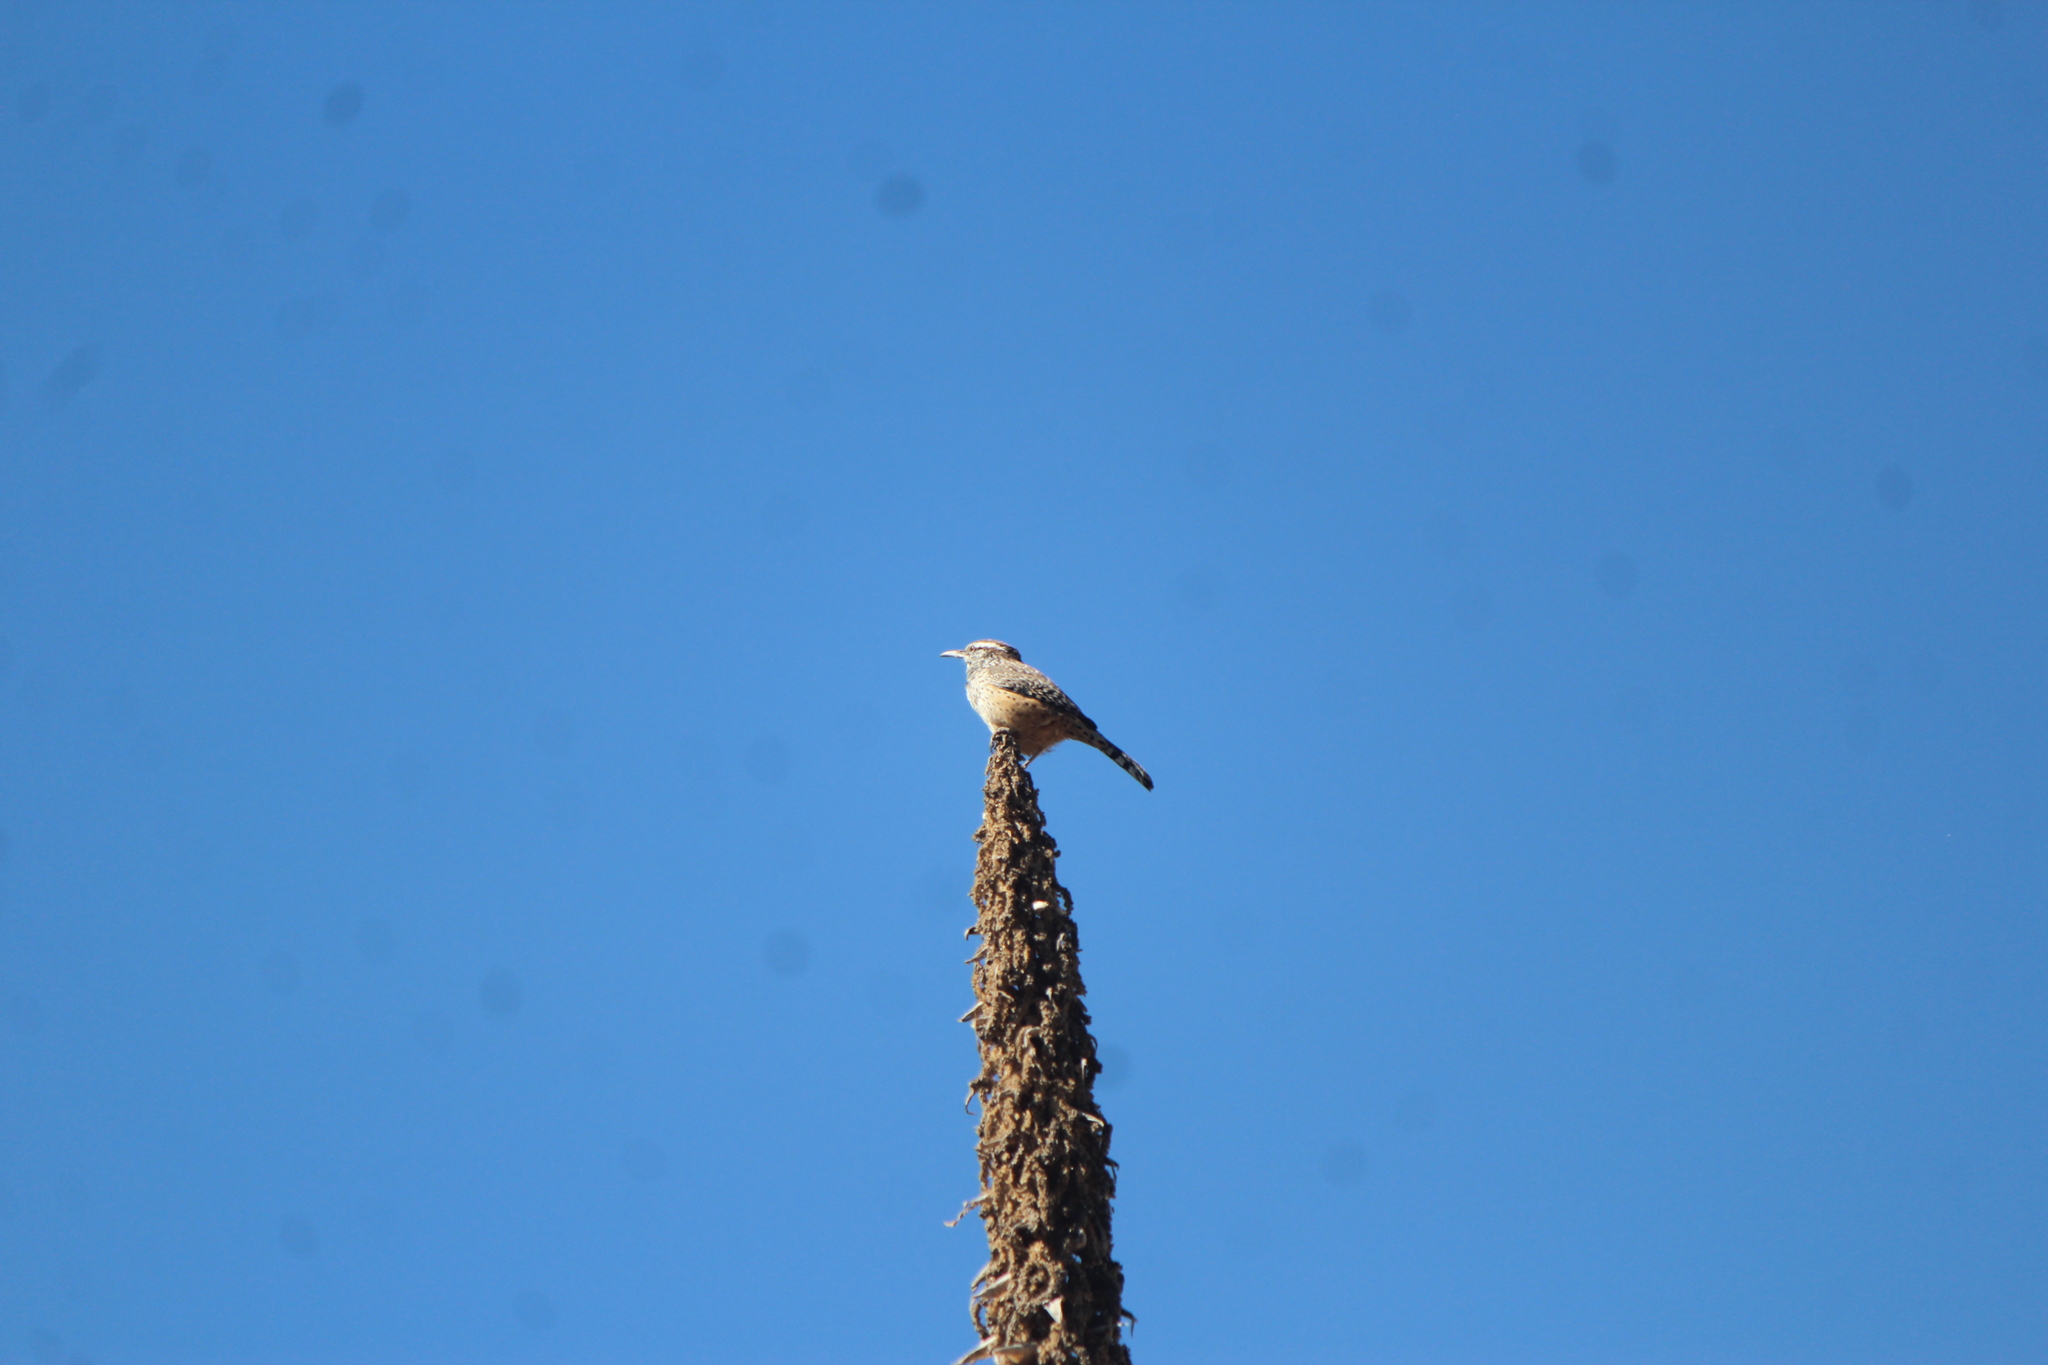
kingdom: Animalia
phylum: Chordata
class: Aves
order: Passeriformes
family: Troglodytidae
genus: Campylorhynchus
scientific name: Campylorhynchus brunneicapillus
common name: Cactus wren
